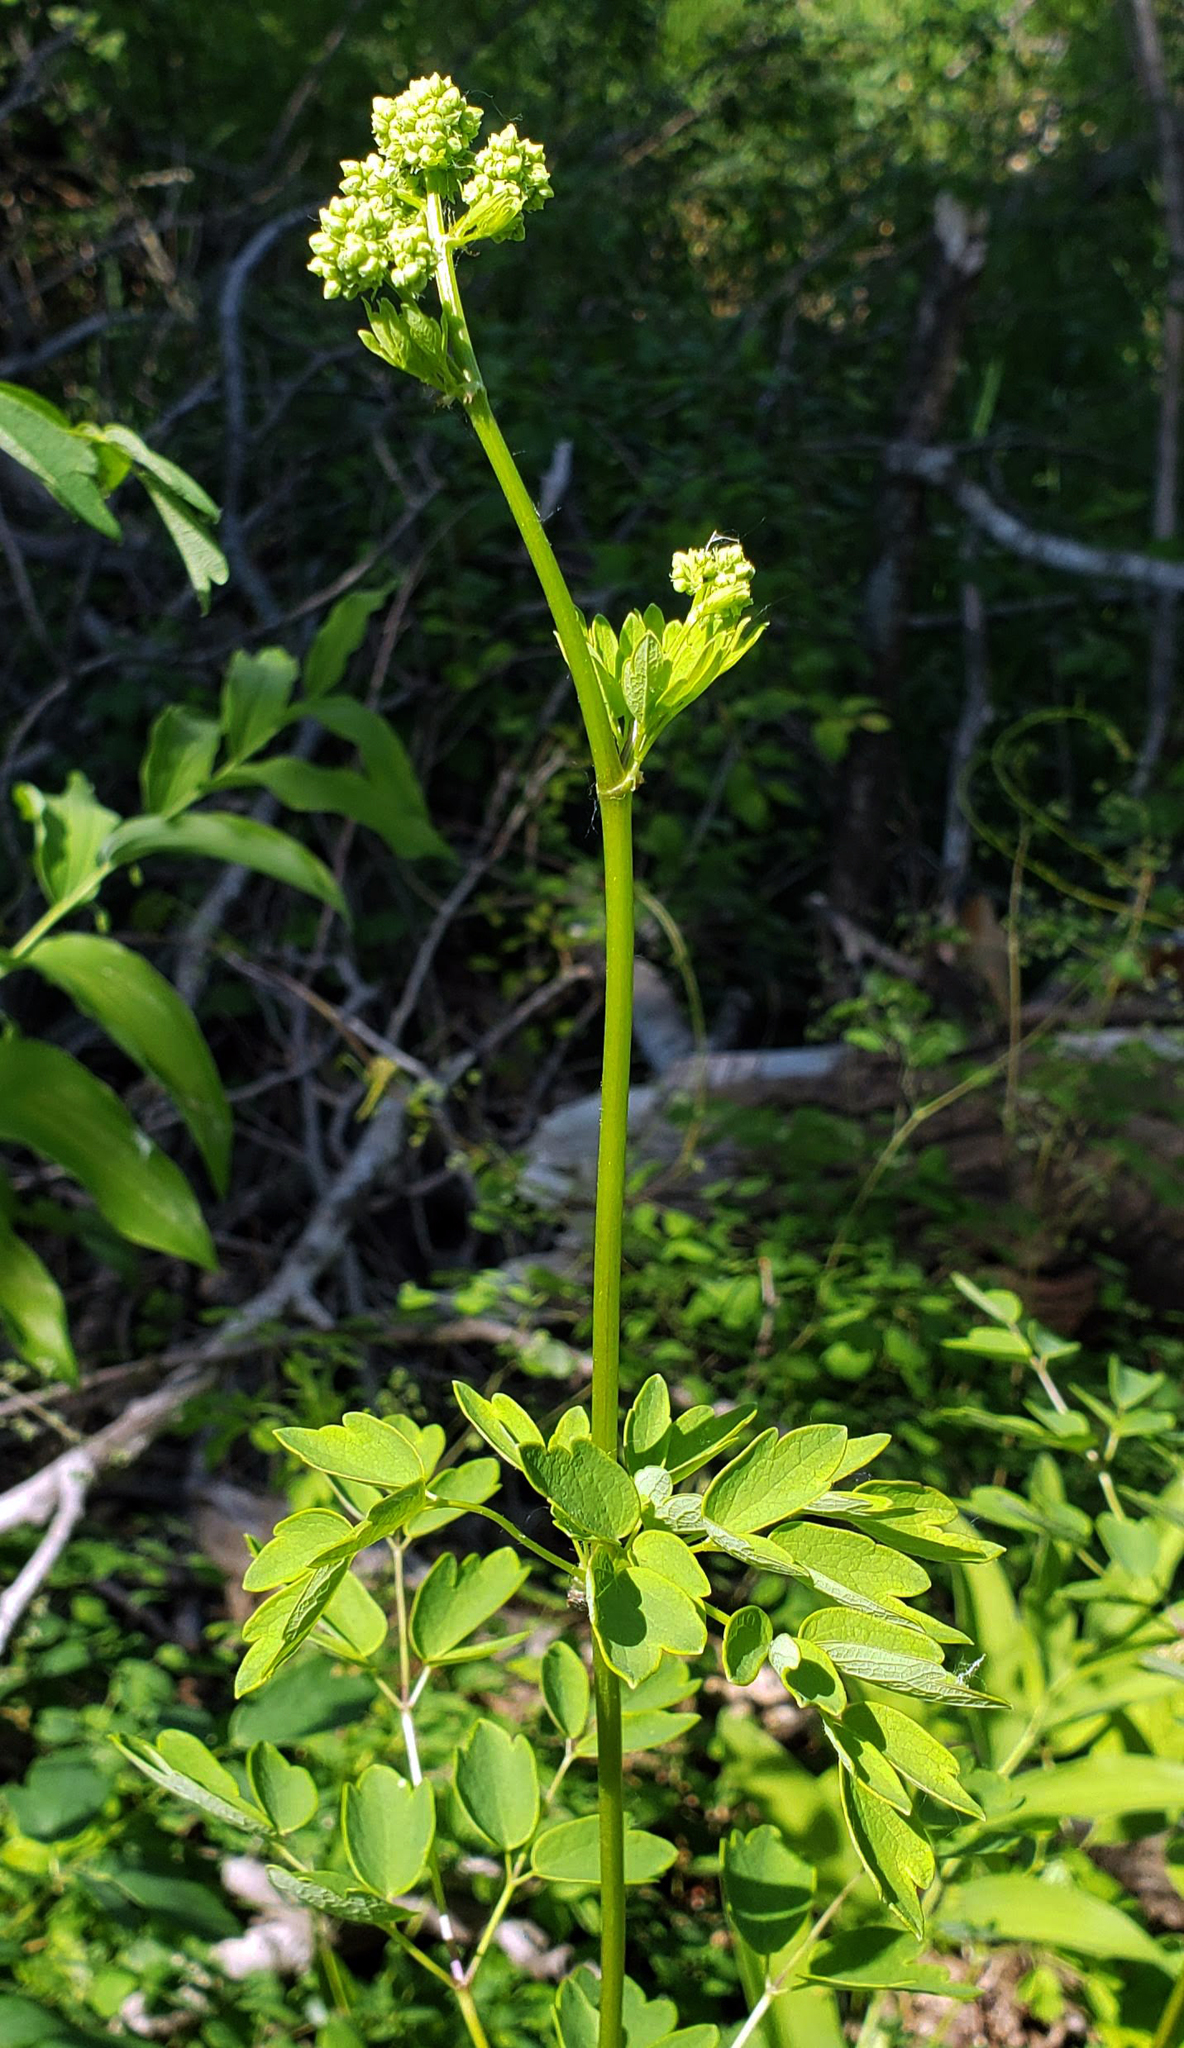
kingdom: Plantae
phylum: Tracheophyta
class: Magnoliopsida
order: Ranunculales
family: Ranunculaceae
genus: Thalictrum
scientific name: Thalictrum dasycarpum
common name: Purple meadow-rue
